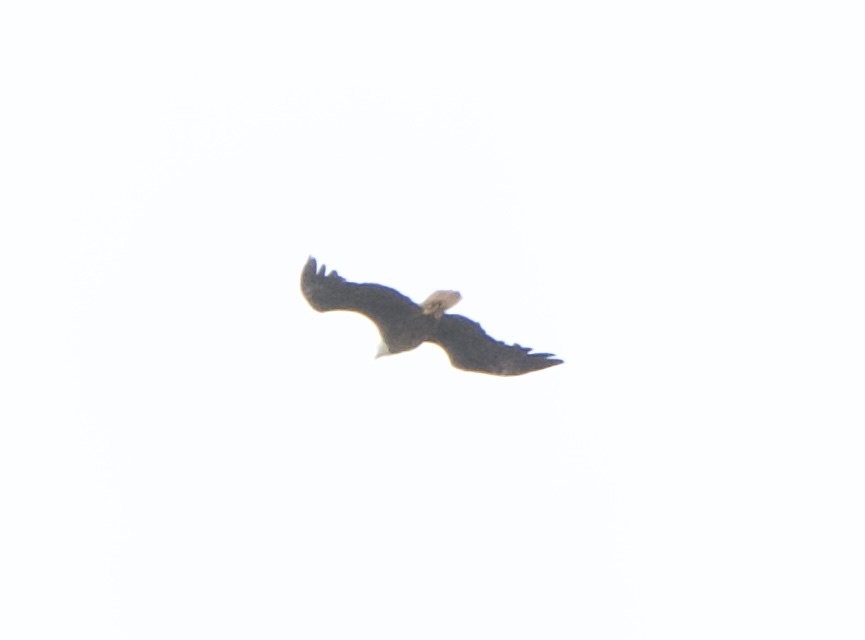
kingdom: Animalia
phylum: Chordata
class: Aves
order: Accipitriformes
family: Accipitridae
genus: Haliaeetus
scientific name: Haliaeetus leucocephalus
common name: Bald eagle
